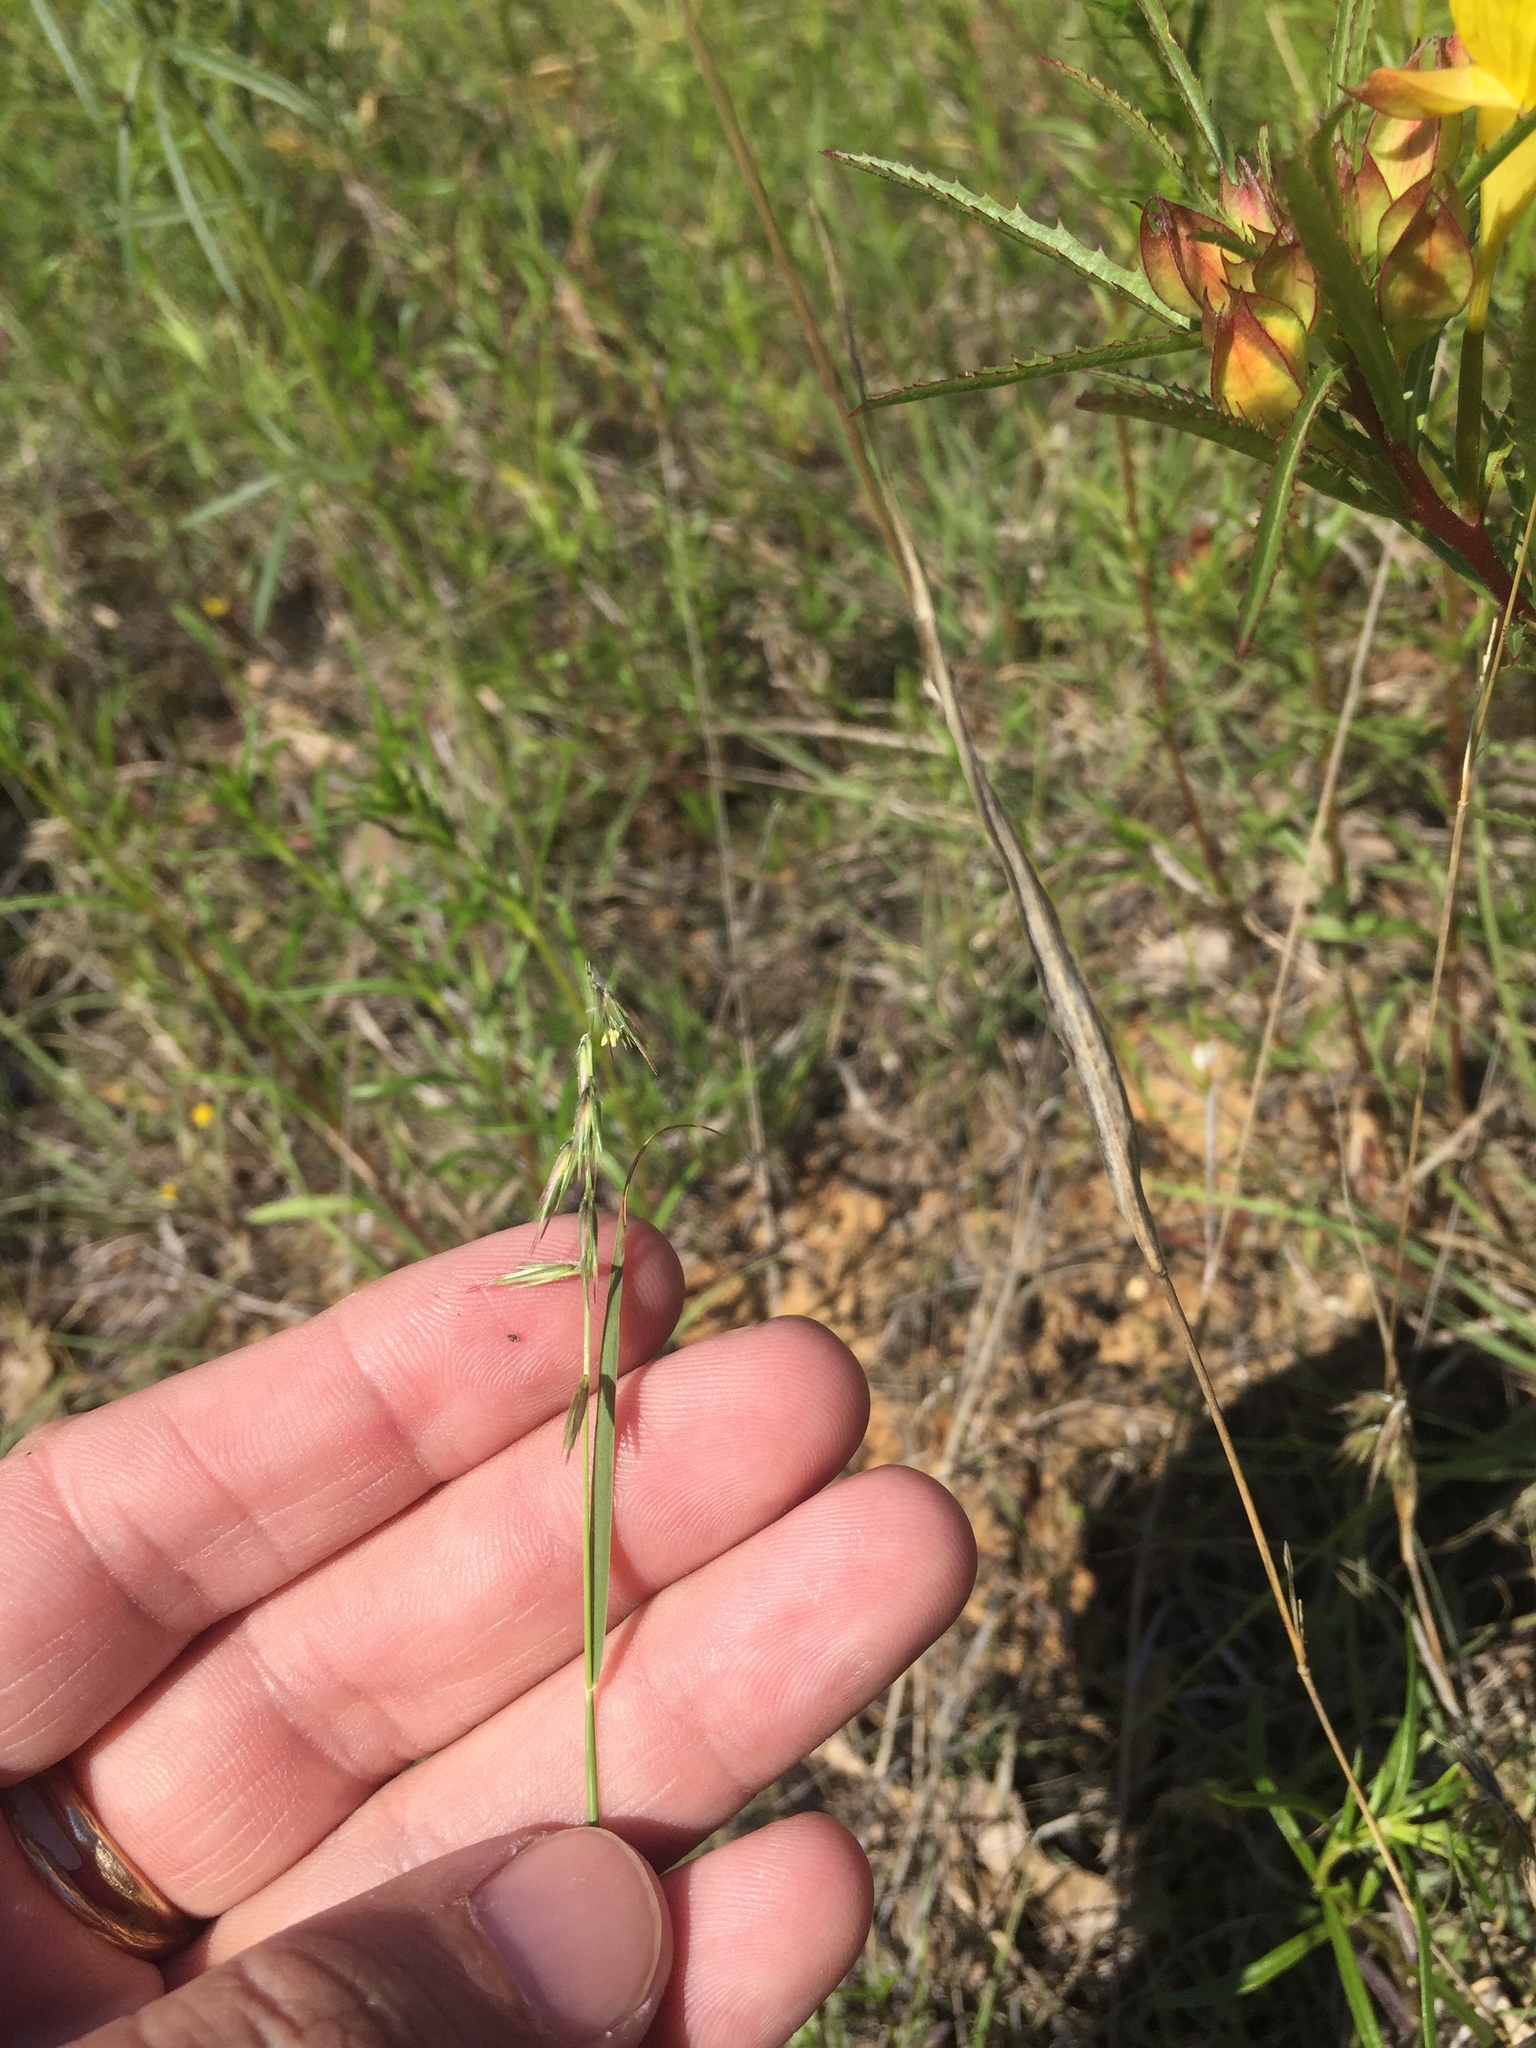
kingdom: Plantae
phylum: Tracheophyta
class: Liliopsida
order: Poales
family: Poaceae
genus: Bouteloua
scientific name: Bouteloua rigidiseta
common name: Texas grama
